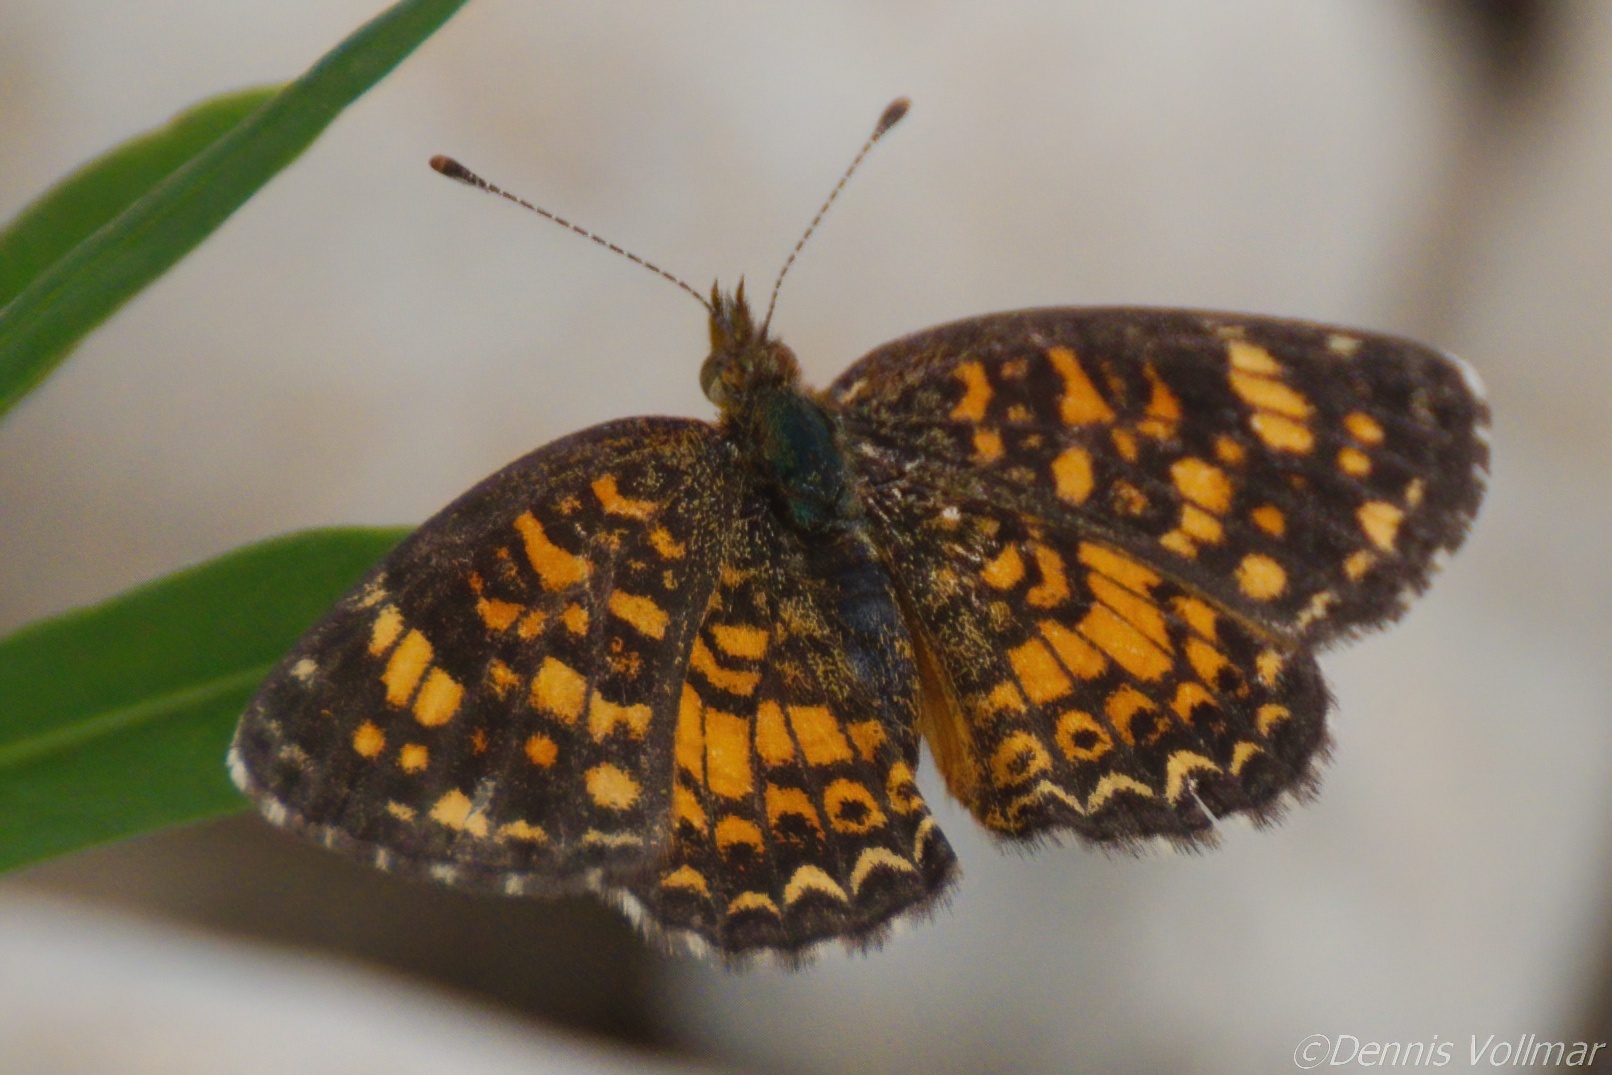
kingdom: Animalia
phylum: Arthropoda
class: Insecta
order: Lepidoptera
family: Nymphalidae
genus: Phyciodes
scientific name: Phyciodes vesta
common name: Vesta crescent
